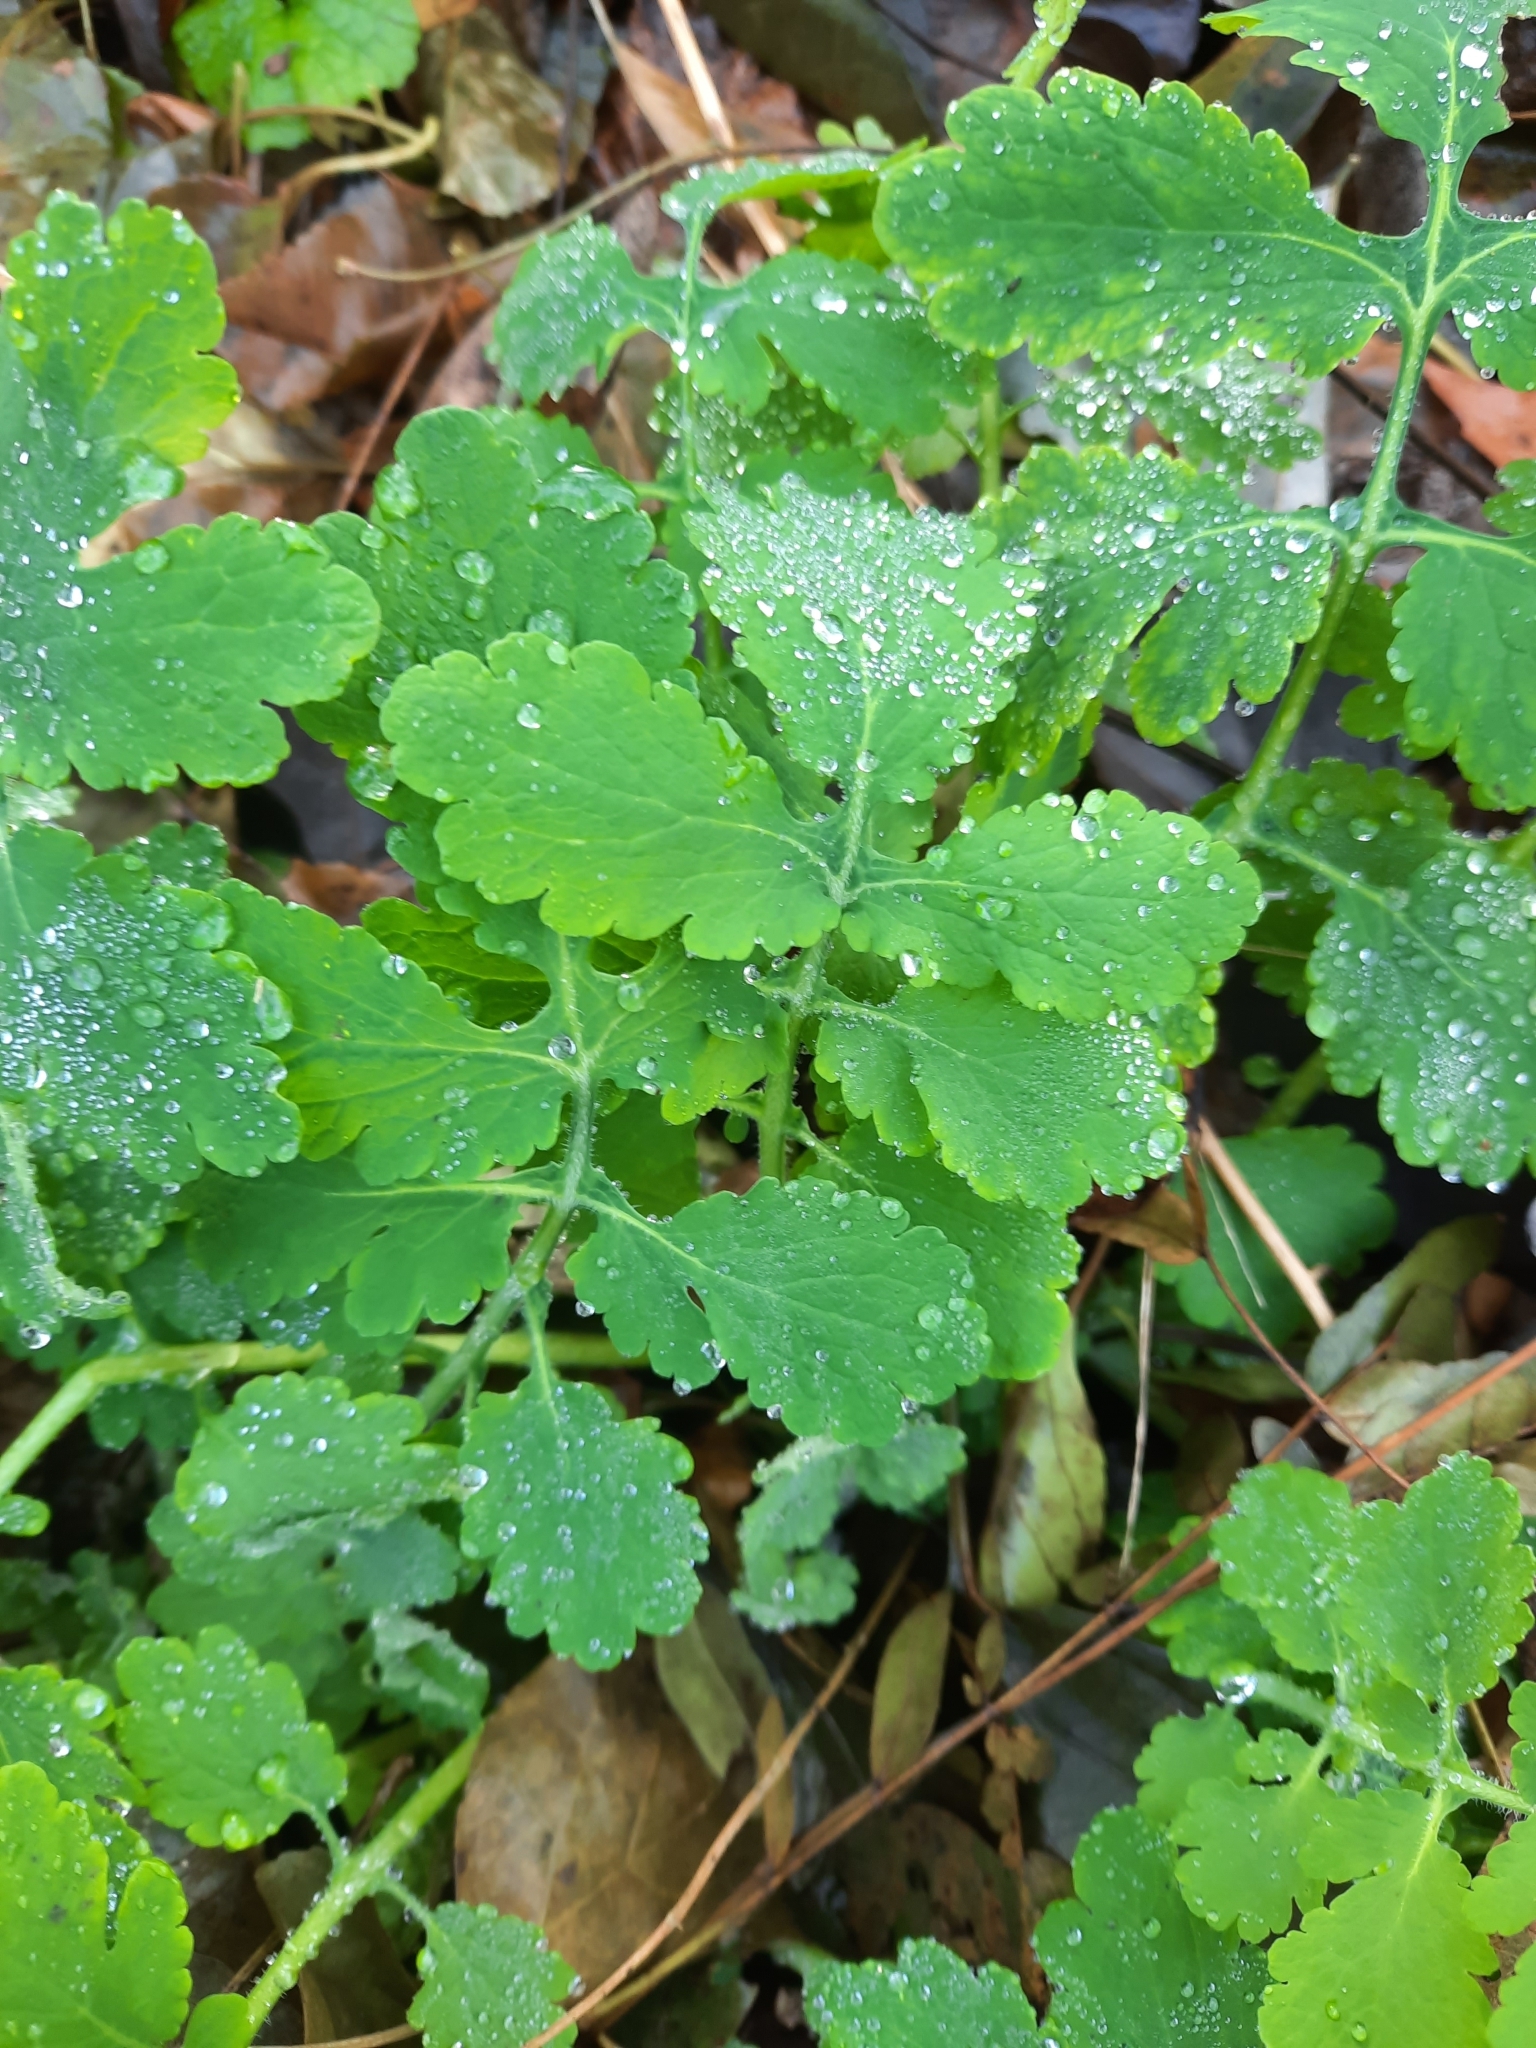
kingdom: Plantae
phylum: Tracheophyta
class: Magnoliopsida
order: Ranunculales
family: Papaveraceae
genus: Chelidonium
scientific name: Chelidonium majus
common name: Greater celandine
